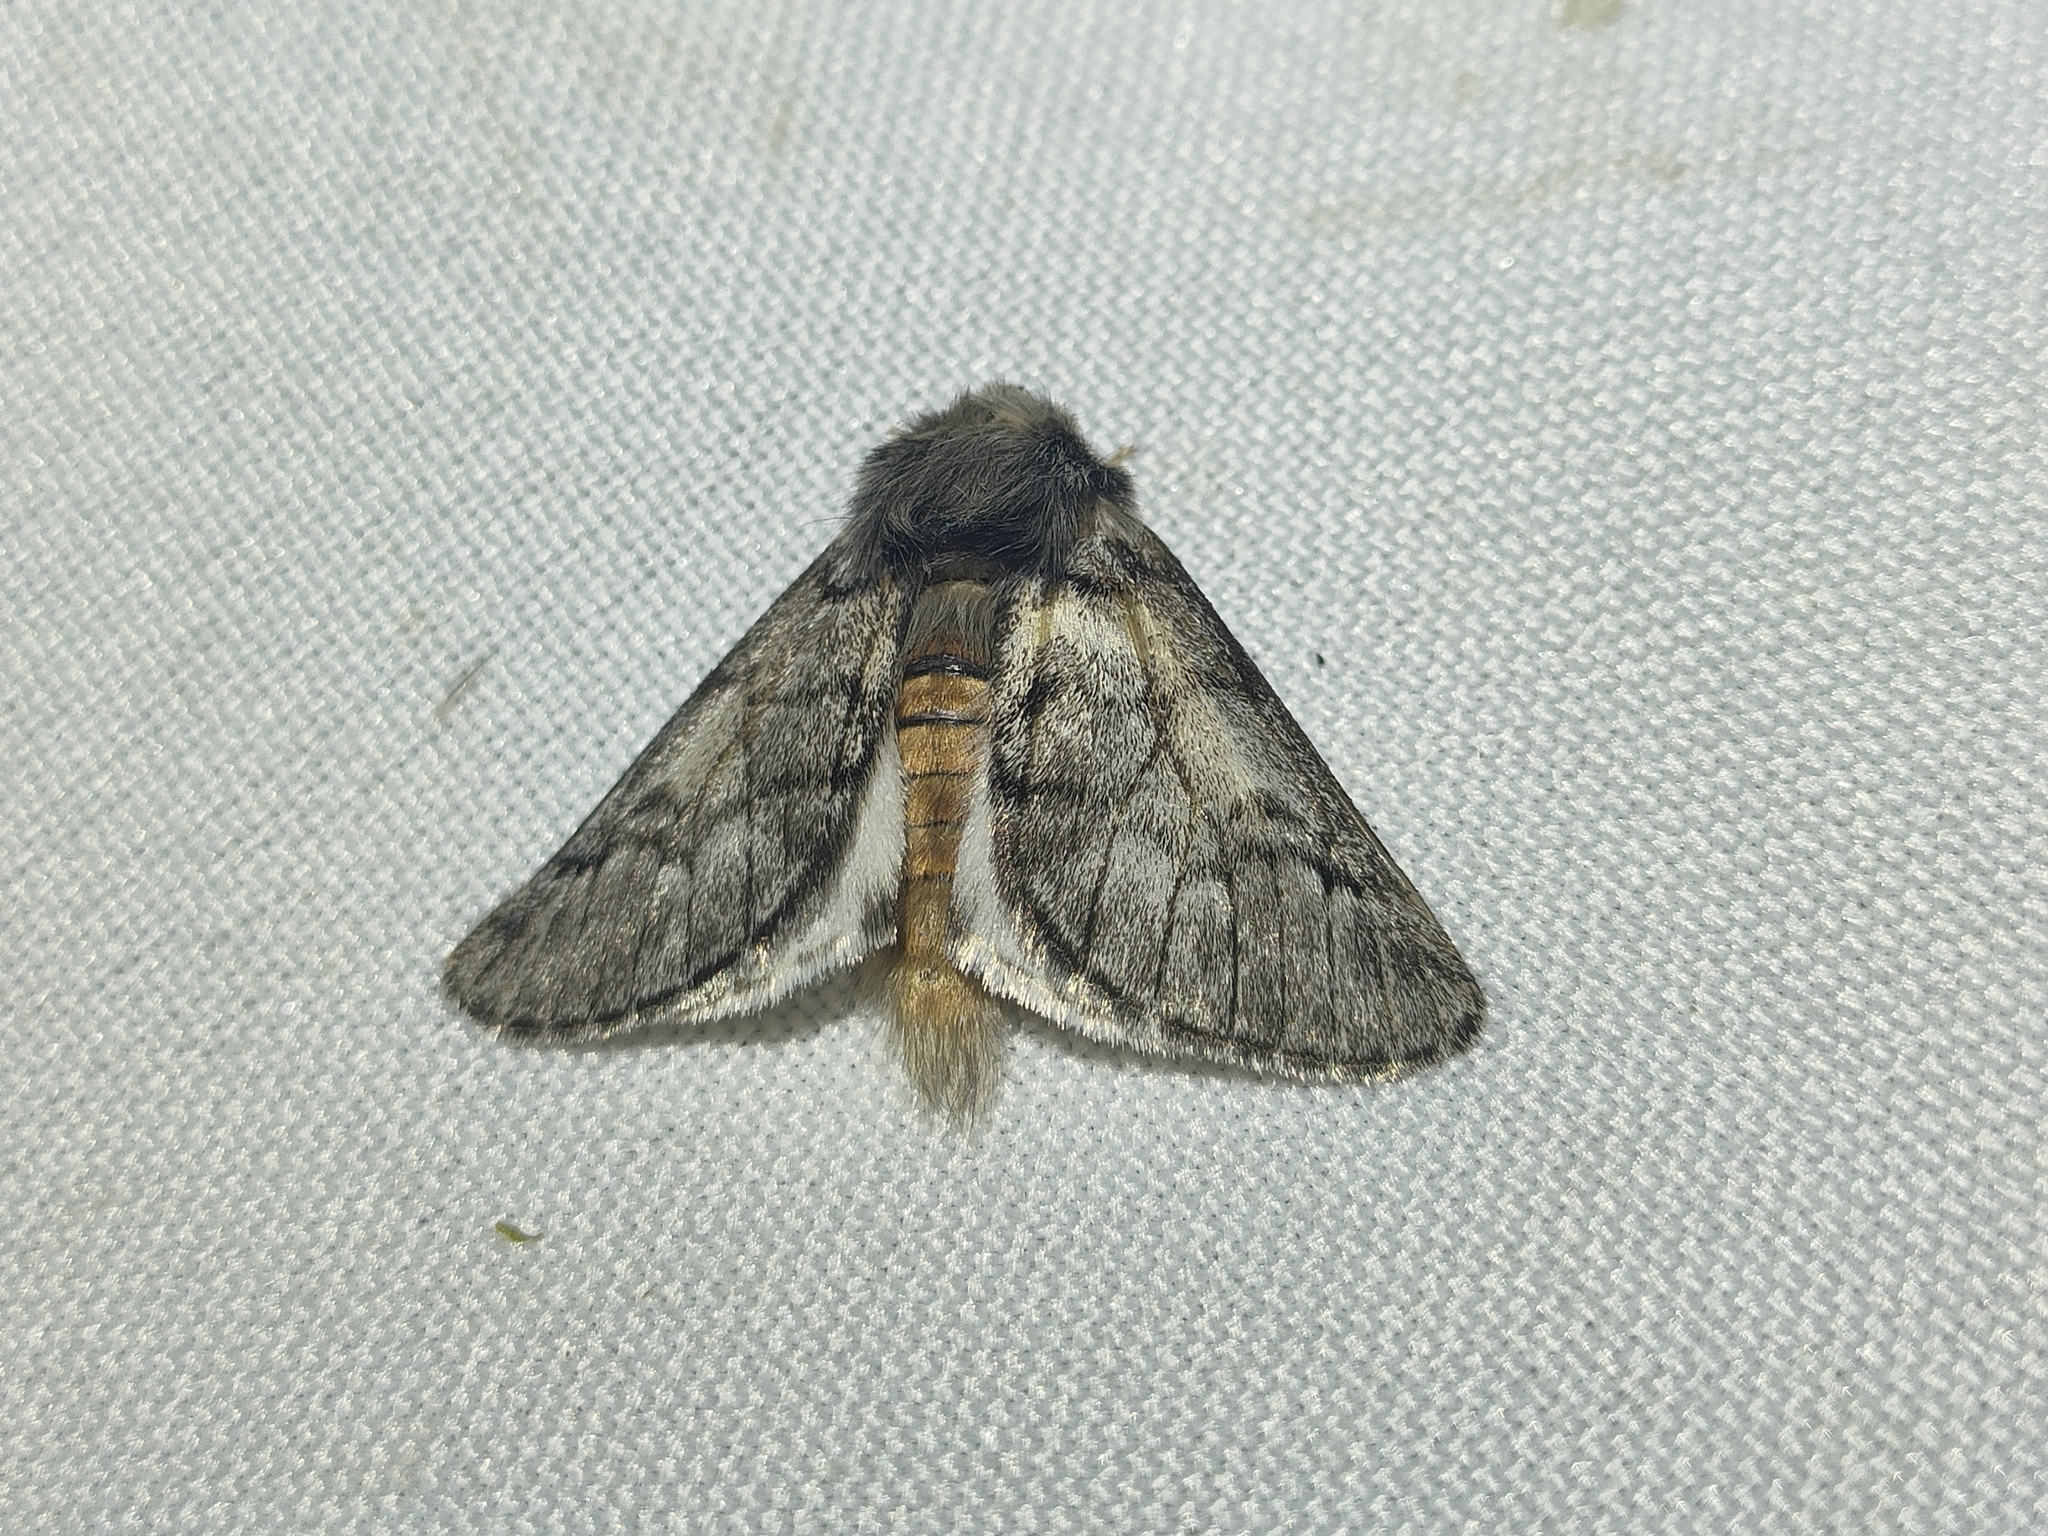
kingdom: Animalia
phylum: Arthropoda
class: Insecta
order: Lepidoptera
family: Notodontidae
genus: Thaumetopoea
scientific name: Thaumetopoea pityocampa
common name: Pine processionary
